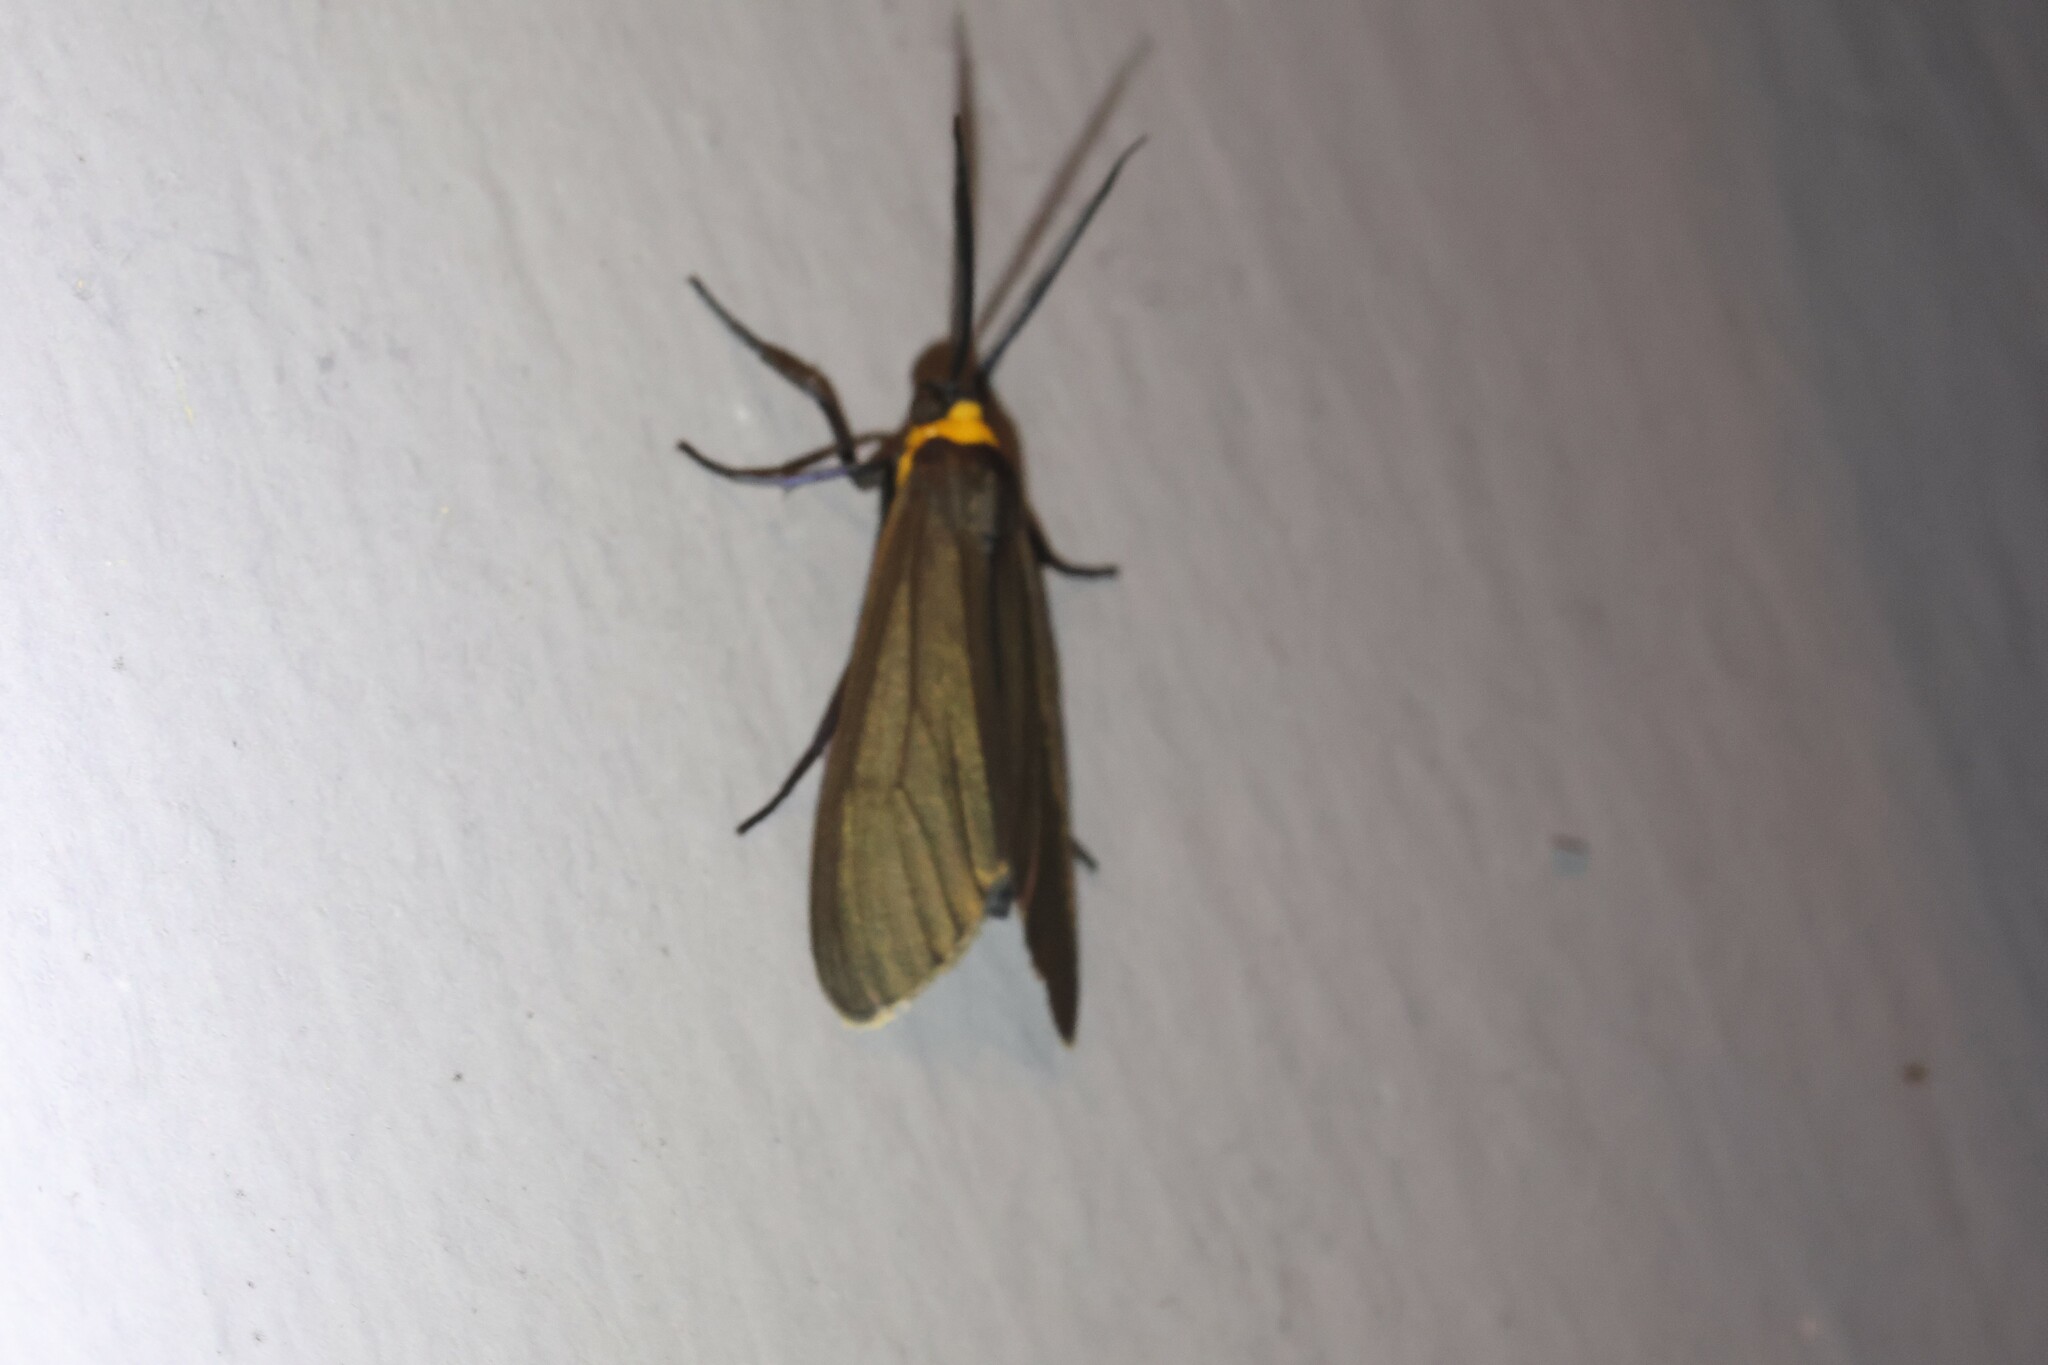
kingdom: Animalia
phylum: Arthropoda
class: Insecta
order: Lepidoptera
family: Erebidae
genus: Cisseps
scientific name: Cisseps fulvicollis
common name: Yellow-collared scape moth
